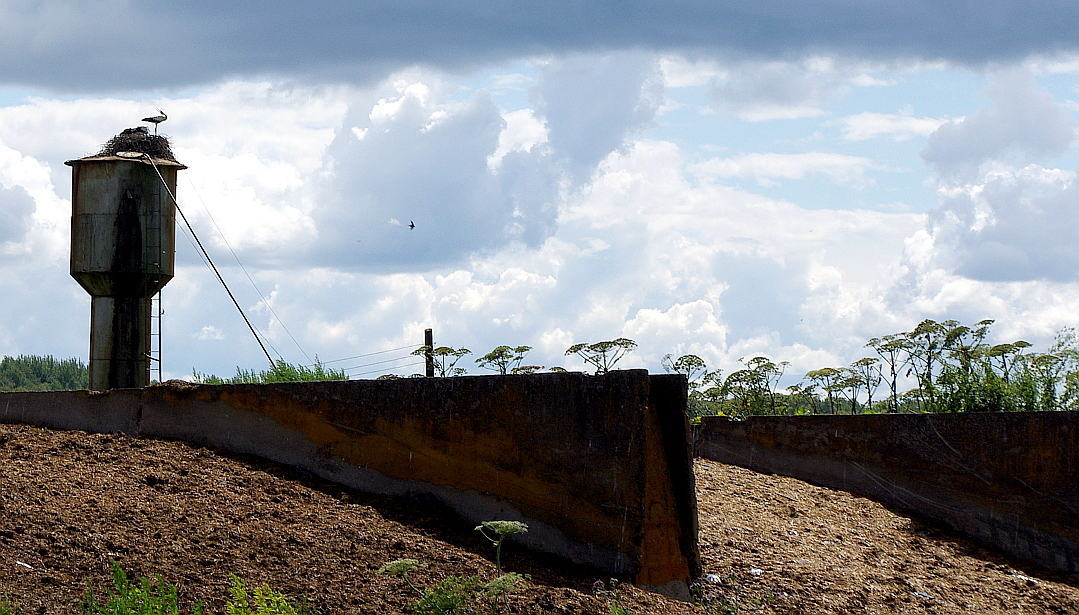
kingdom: Plantae
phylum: Tracheophyta
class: Magnoliopsida
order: Apiales
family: Apiaceae
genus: Heracleum
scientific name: Heracleum sosnowskyi
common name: Sosnowsky's hogweed
